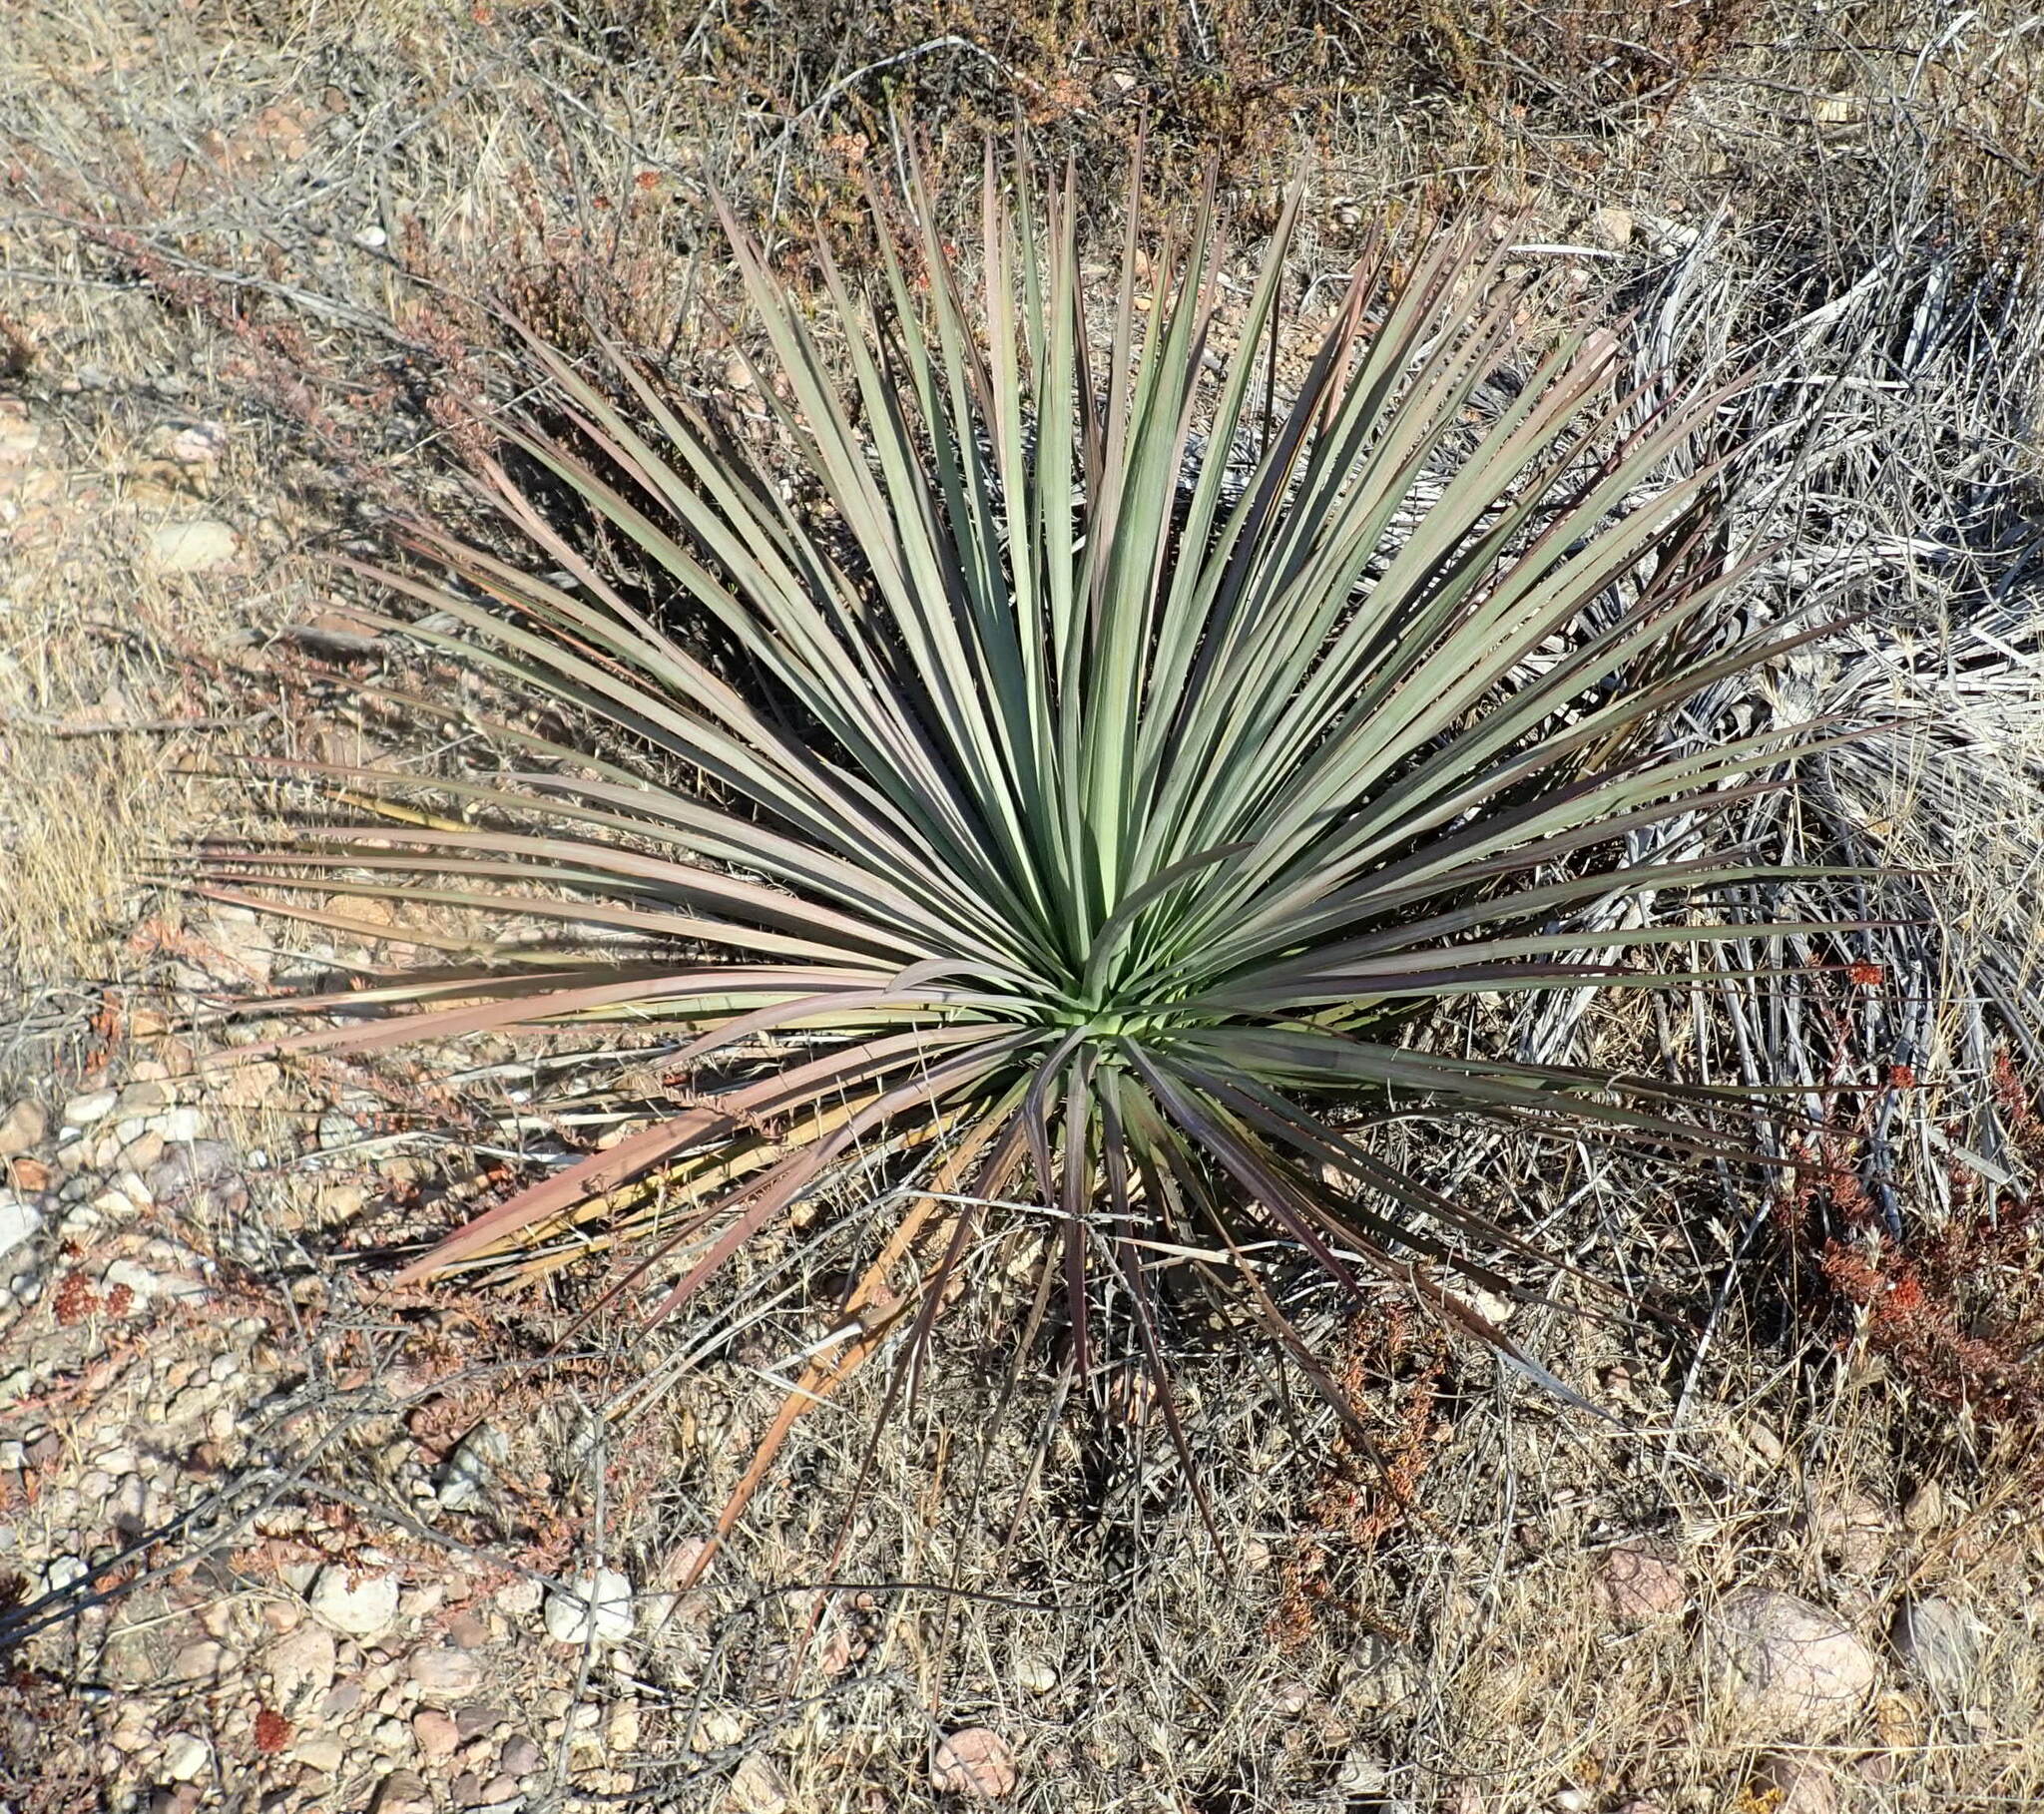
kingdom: Plantae
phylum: Tracheophyta
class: Liliopsida
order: Asparagales
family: Asparagaceae
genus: Hesperoyucca
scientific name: Hesperoyucca whipplei
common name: Our lord's-candle
